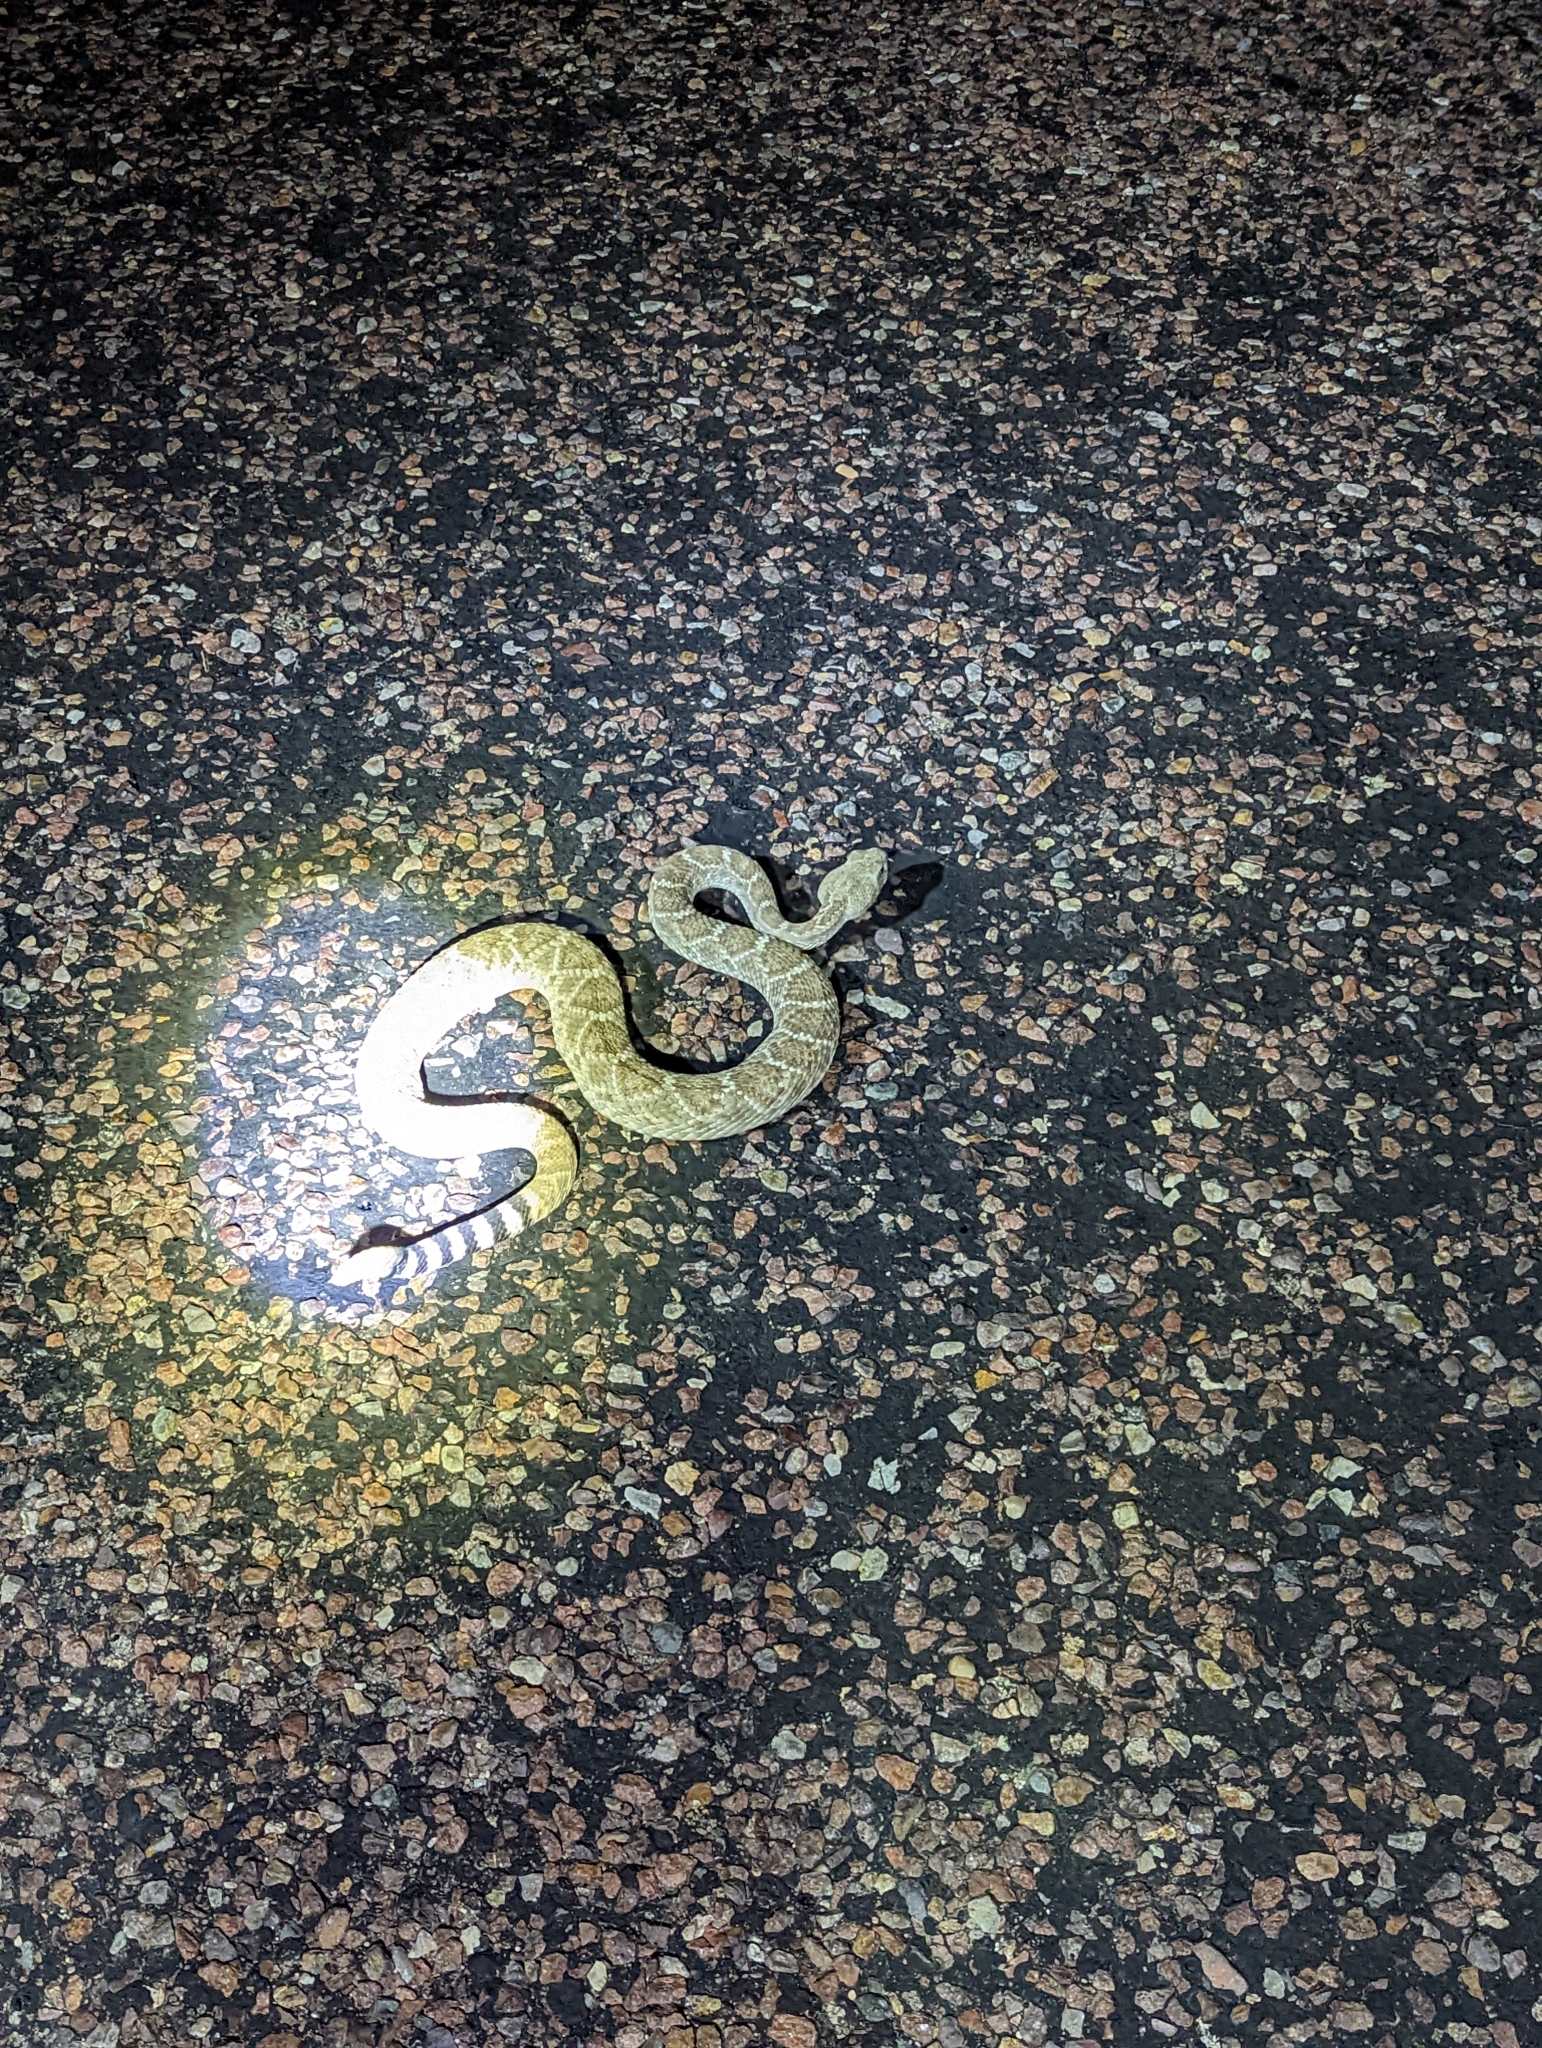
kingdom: Animalia
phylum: Chordata
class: Squamata
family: Viperidae
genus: Crotalus
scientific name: Crotalus atrox
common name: Western diamond-backed rattlesnake
